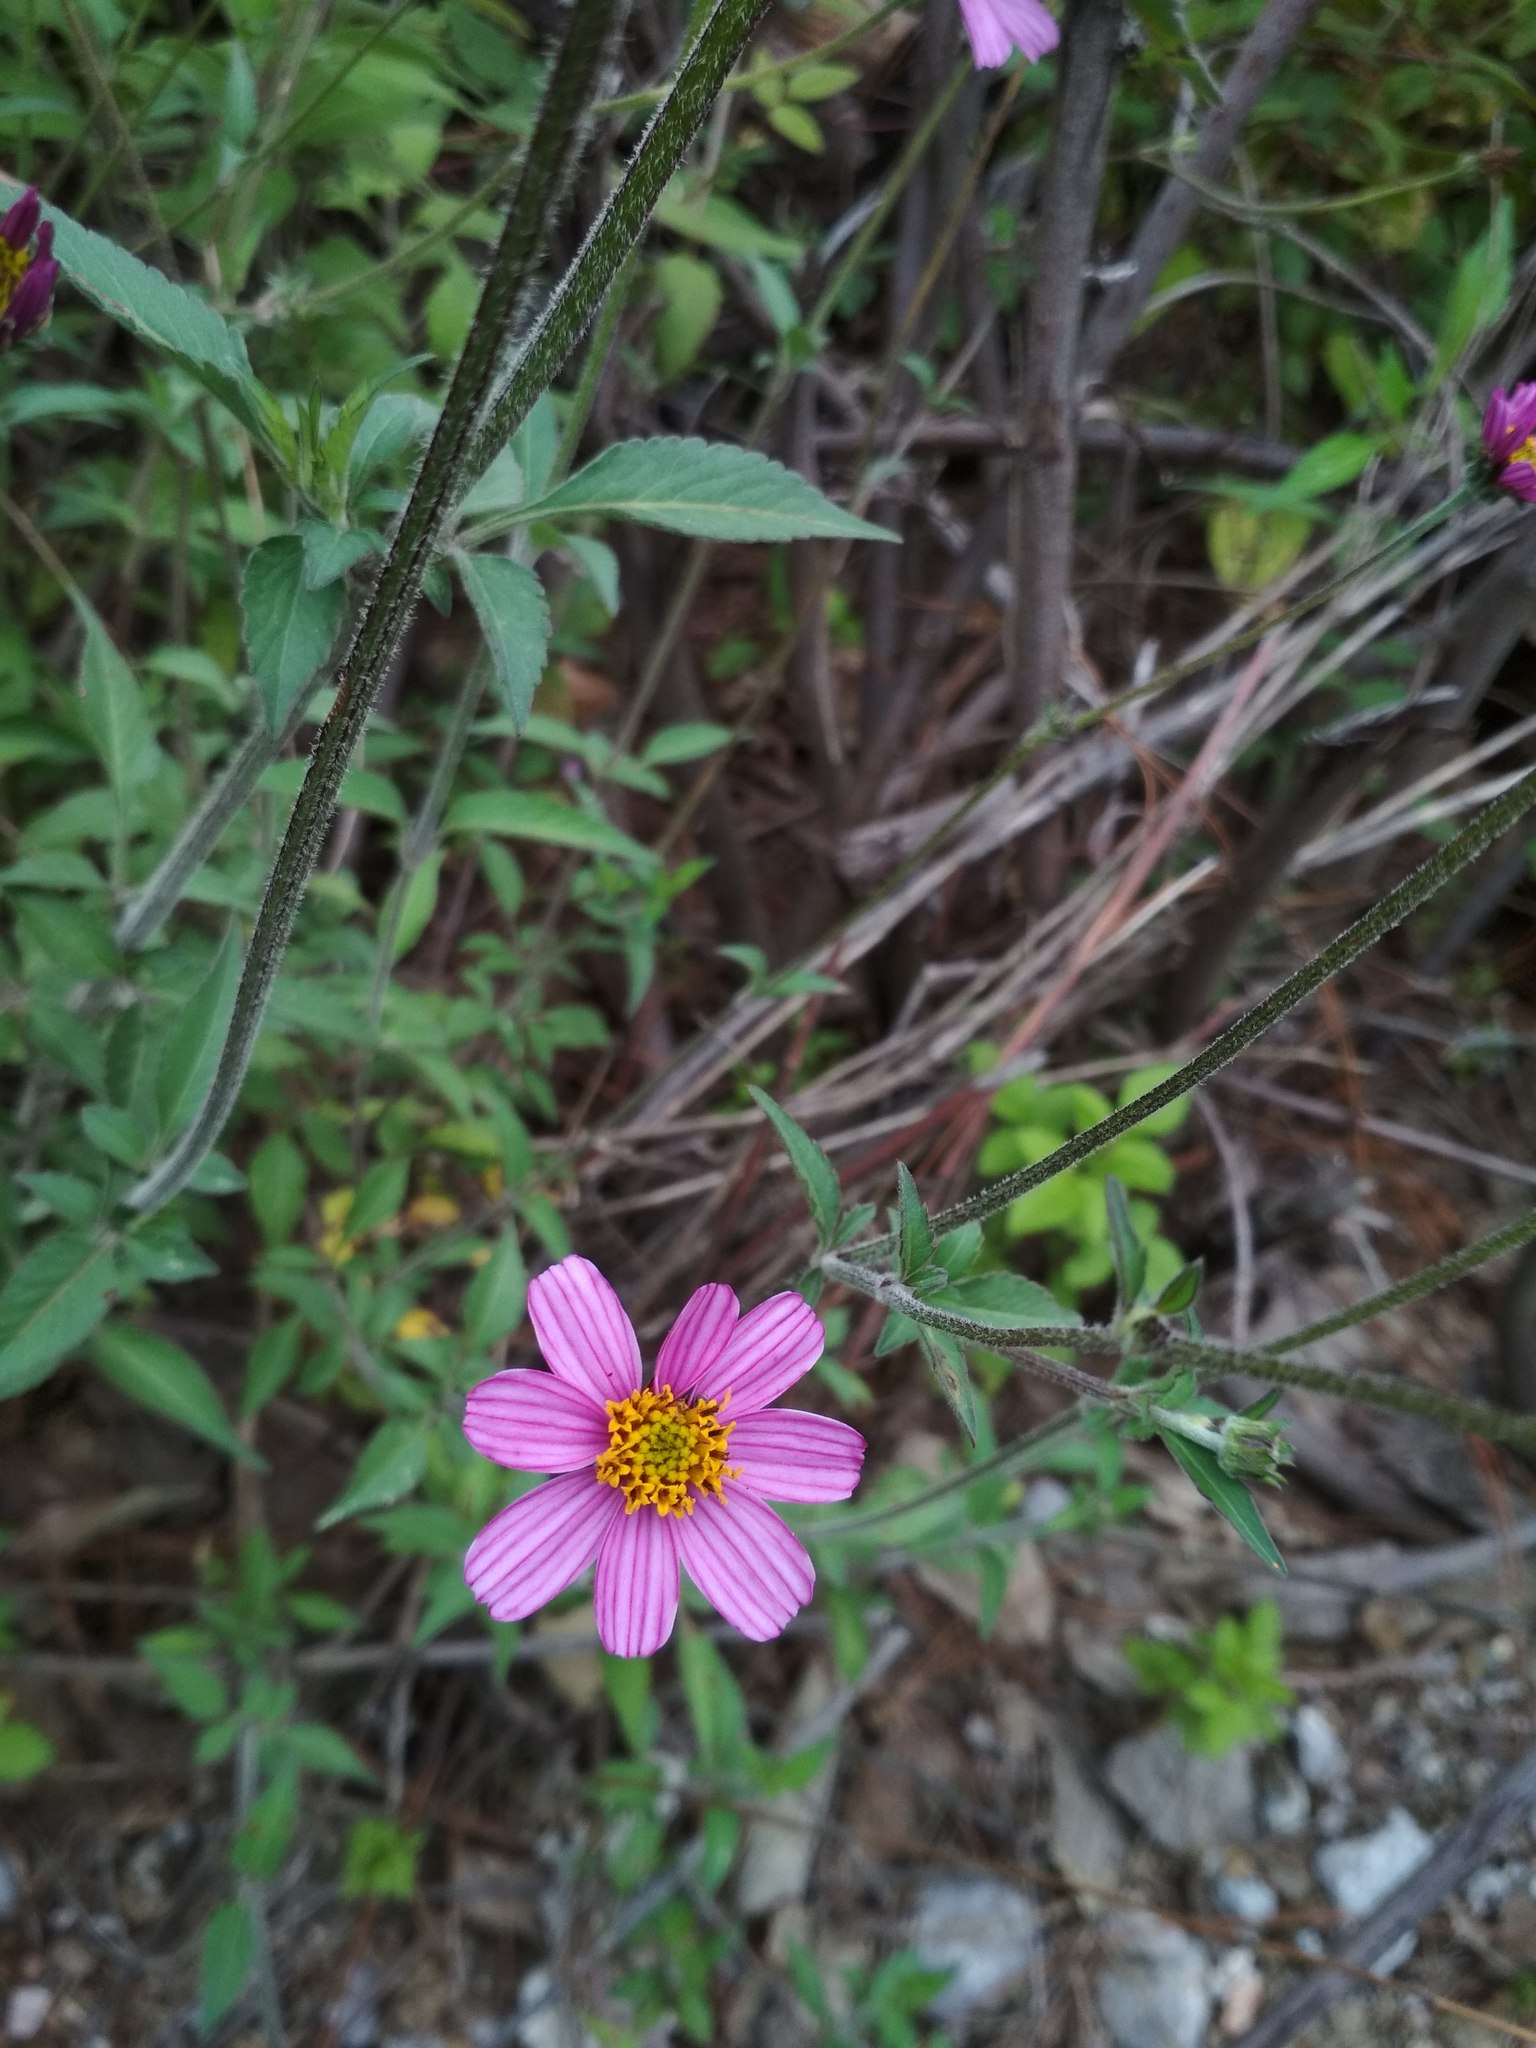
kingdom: Plantae
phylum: Tracheophyta
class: Magnoliopsida
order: Asterales
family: Asteraceae
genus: Bidens
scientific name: Bidens aequisquama
